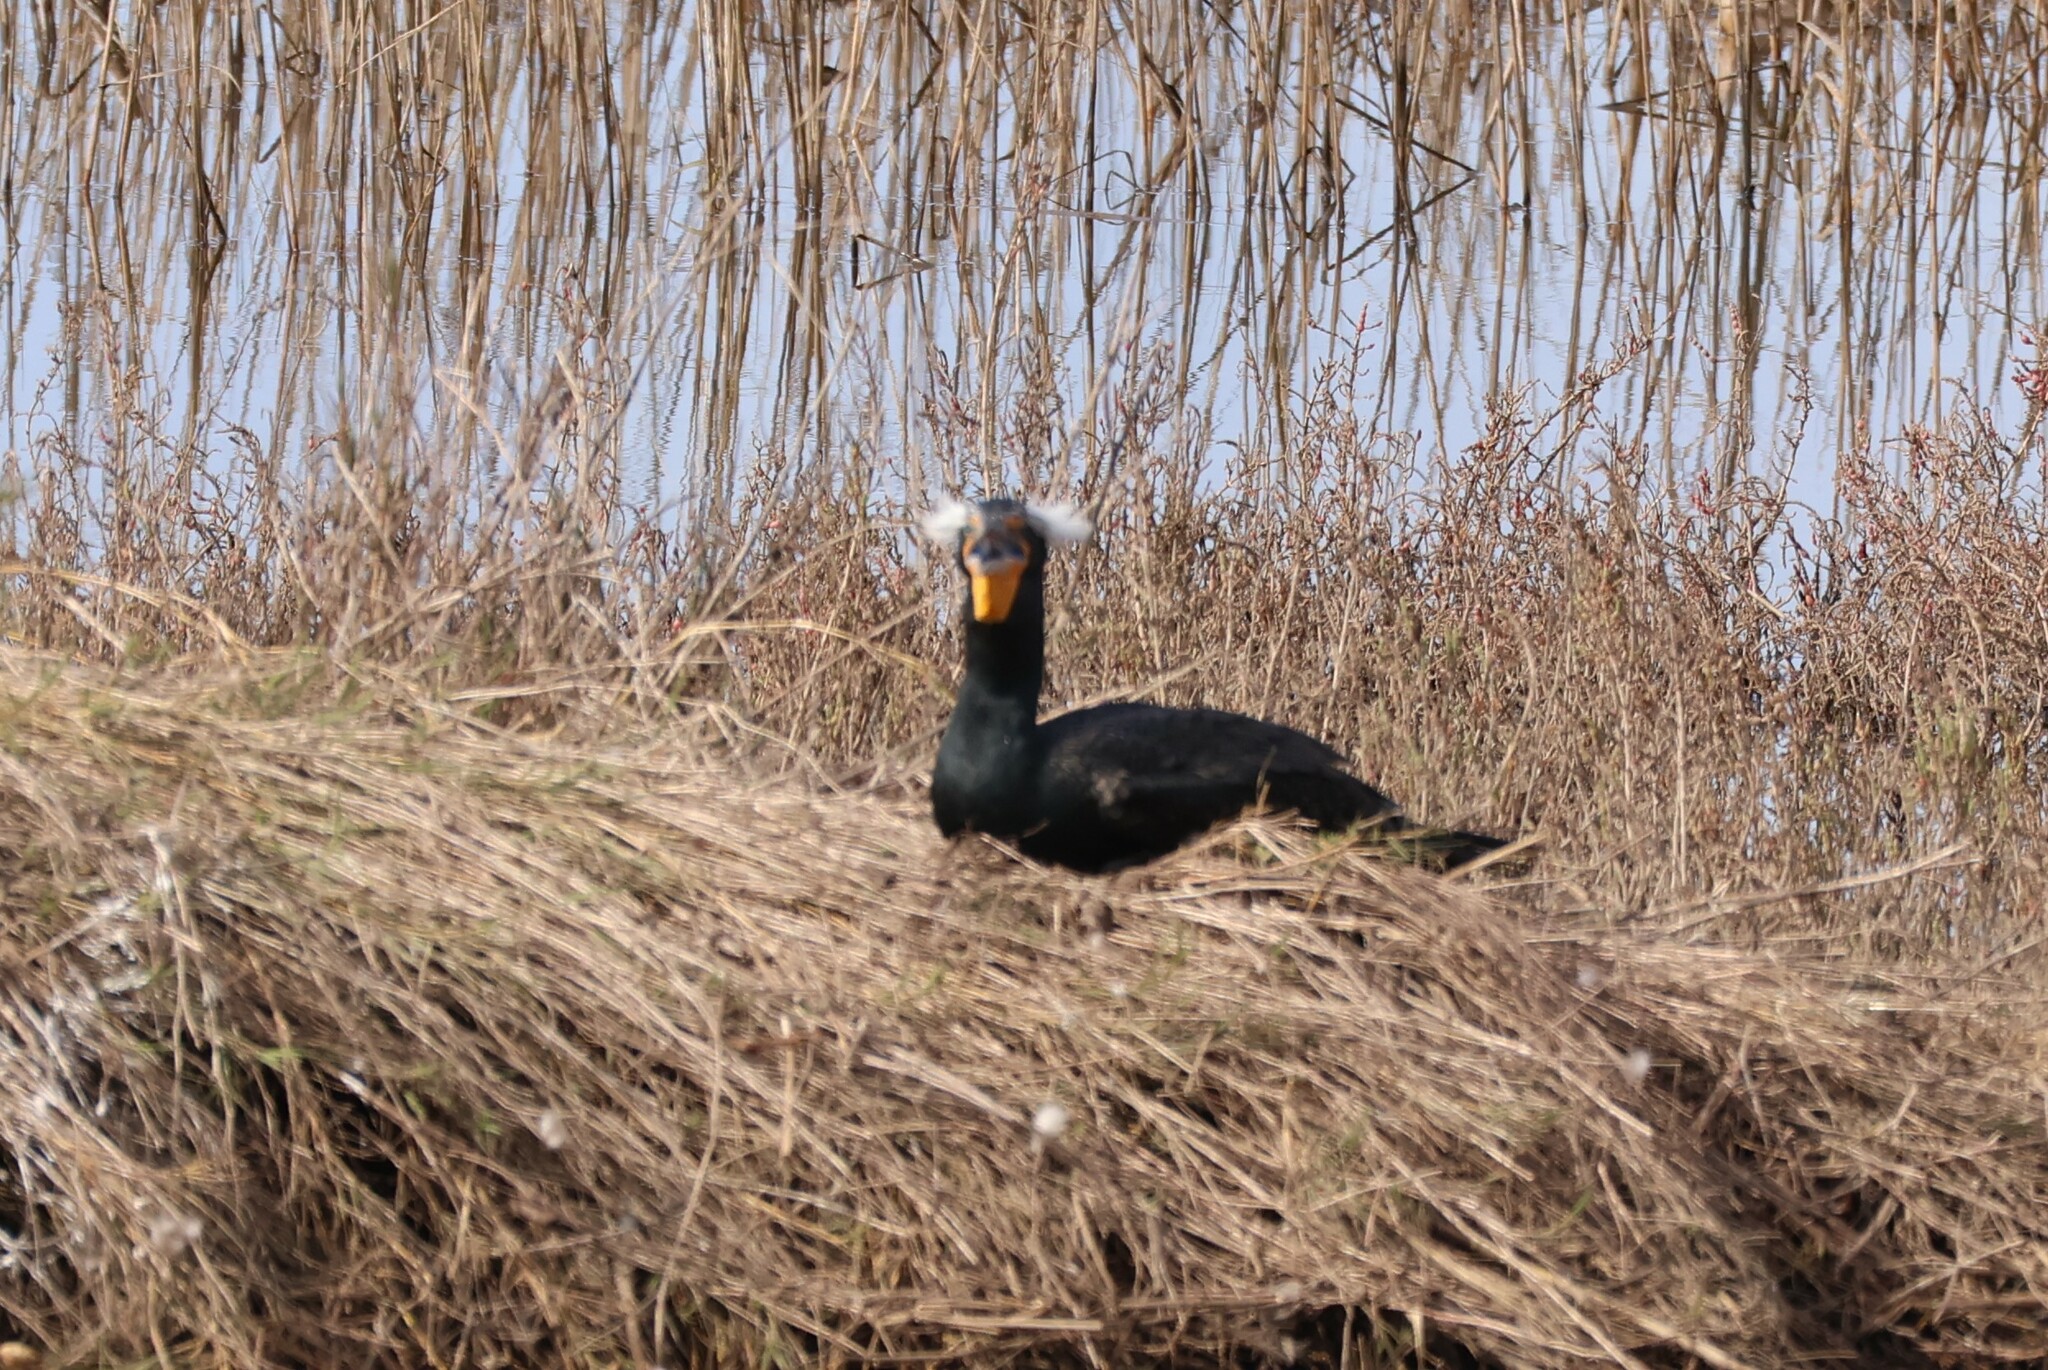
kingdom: Animalia
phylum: Chordata
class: Aves
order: Suliformes
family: Phalacrocoracidae
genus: Phalacrocorax
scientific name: Phalacrocorax auritus
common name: Double-crested cormorant
